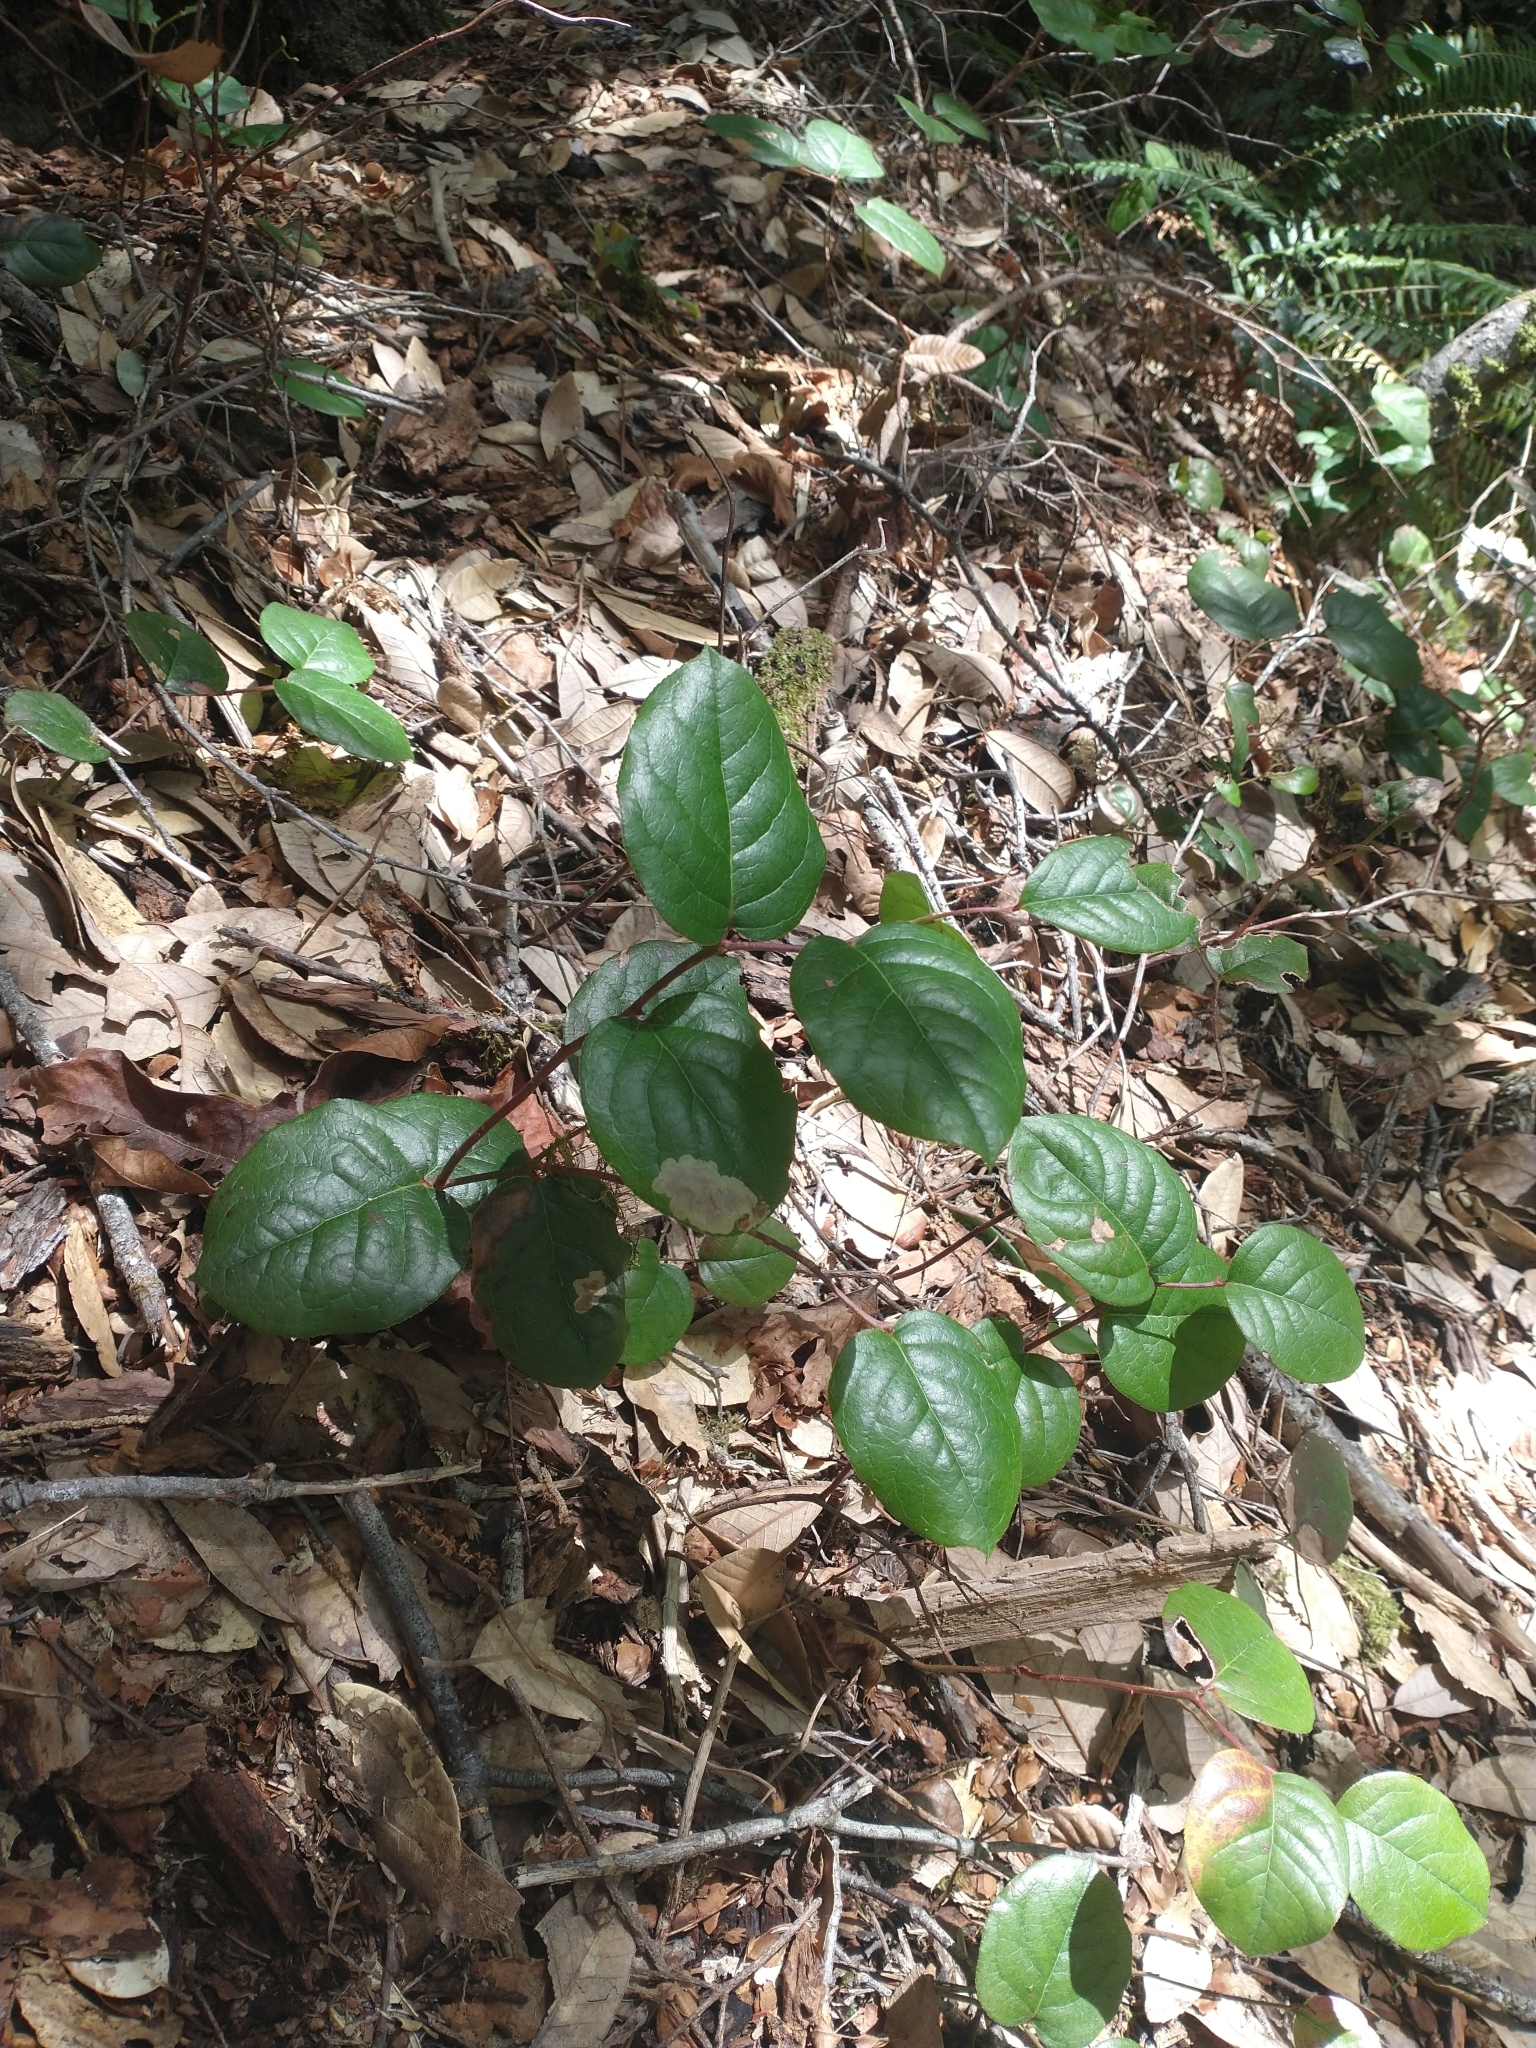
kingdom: Plantae
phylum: Tracheophyta
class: Magnoliopsida
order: Ericales
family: Ericaceae
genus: Gaultheria
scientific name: Gaultheria shallon
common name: Shallon
